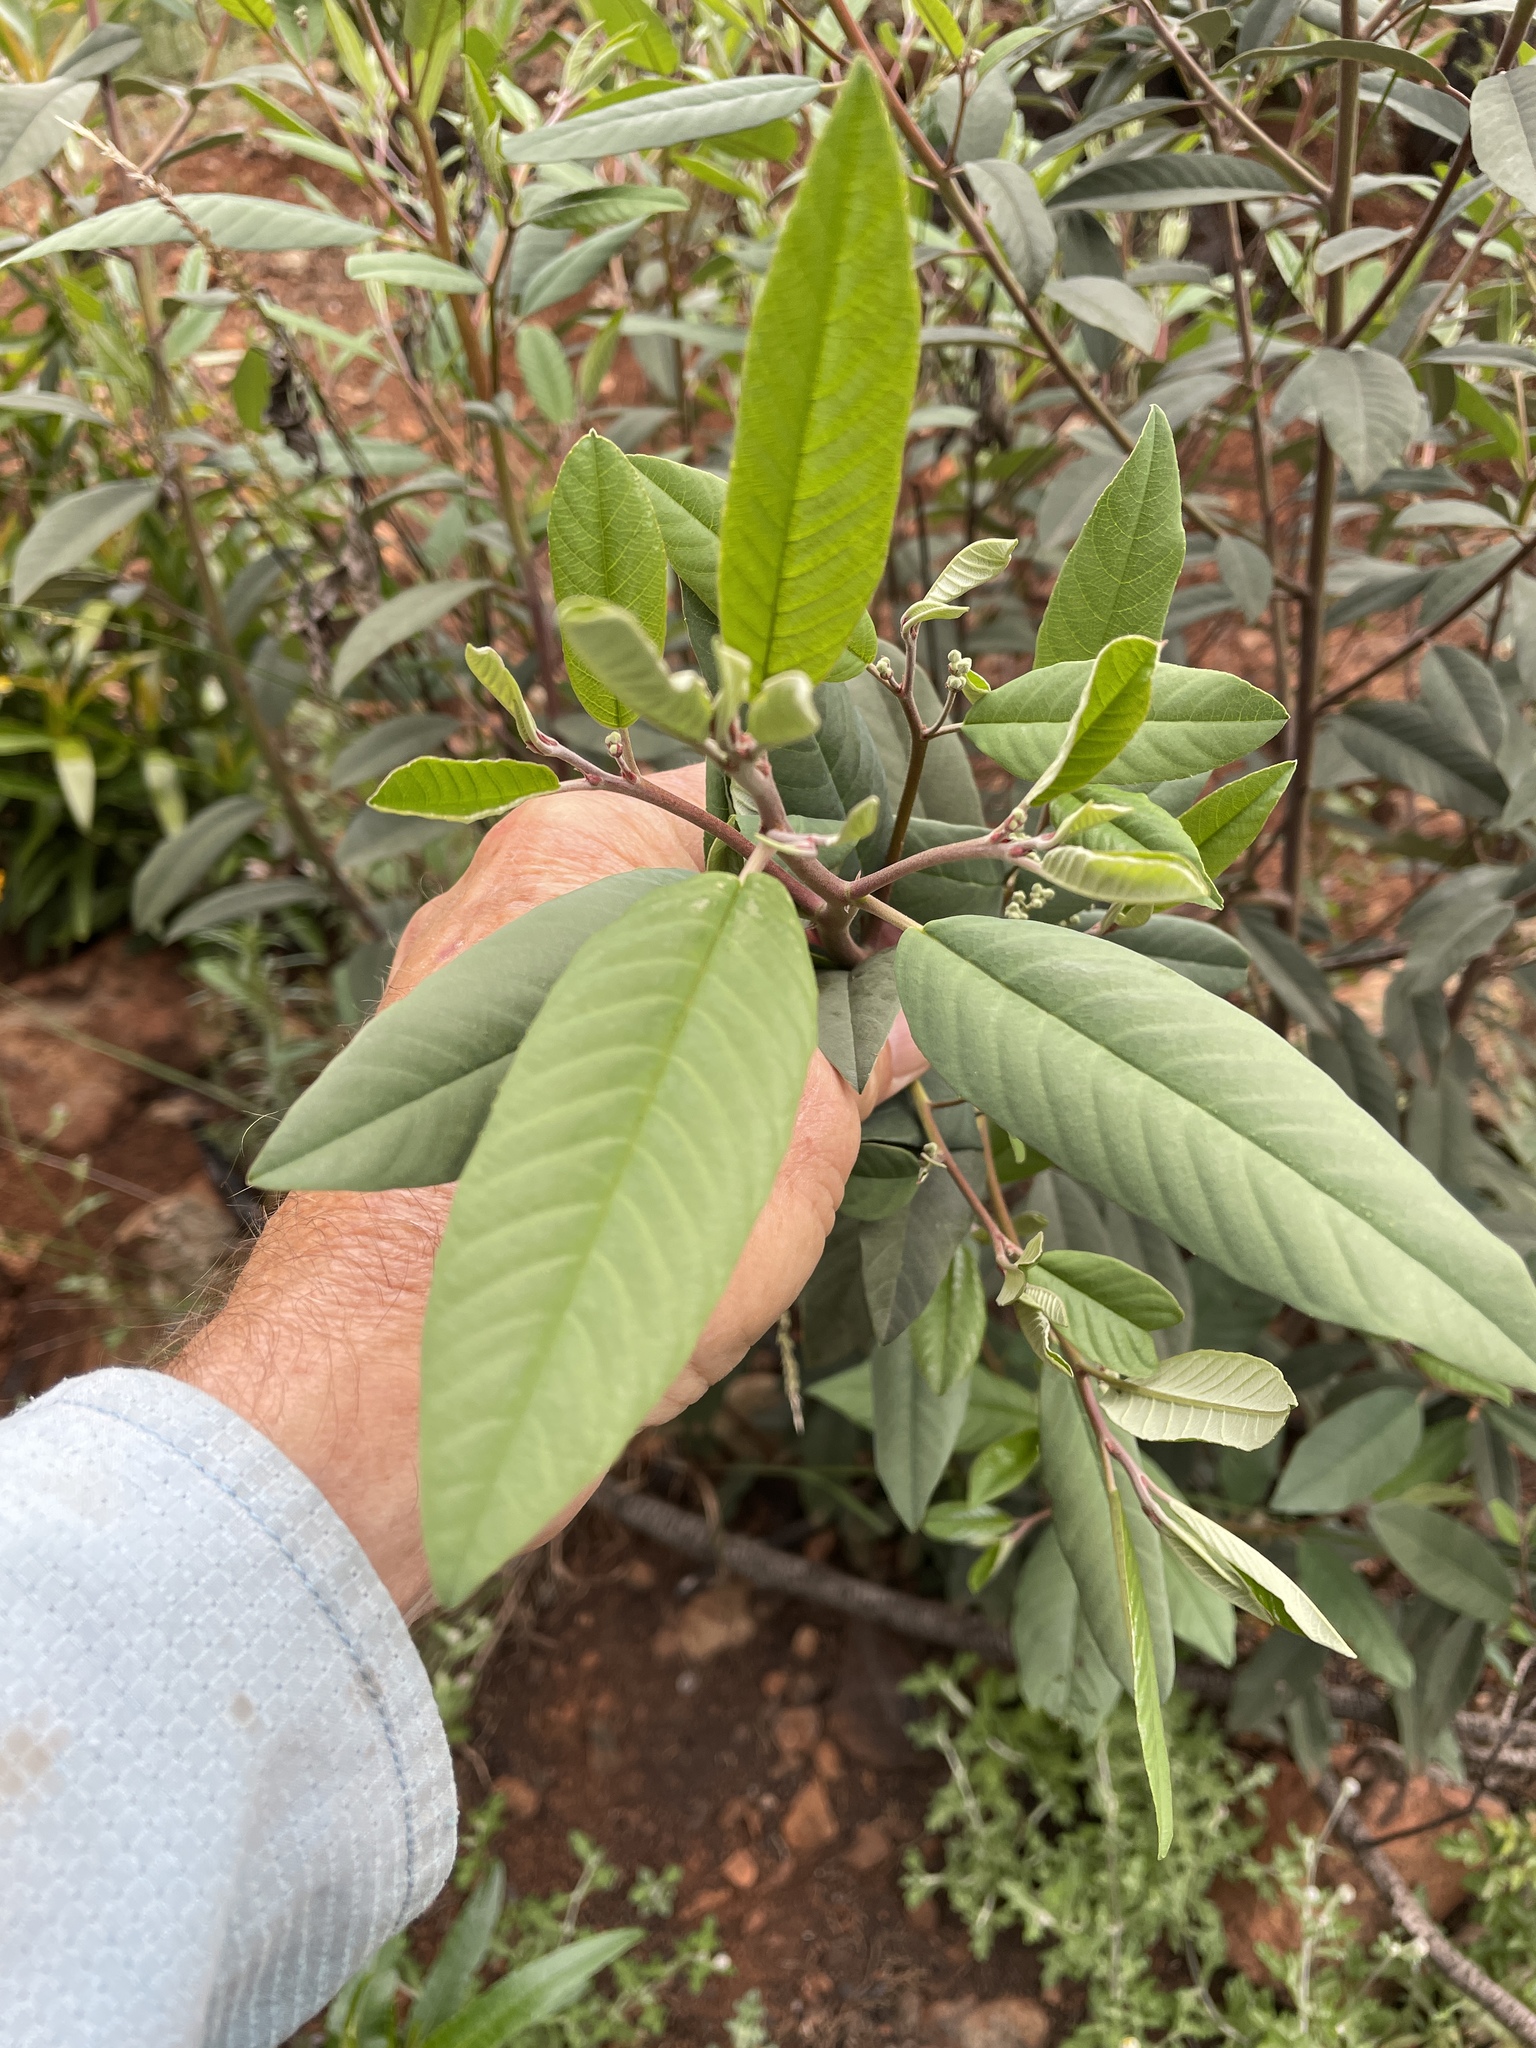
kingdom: Plantae
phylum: Tracheophyta
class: Magnoliopsida
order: Rosales
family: Rhamnaceae
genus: Frangula
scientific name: Frangula californica
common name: California buckthorn
